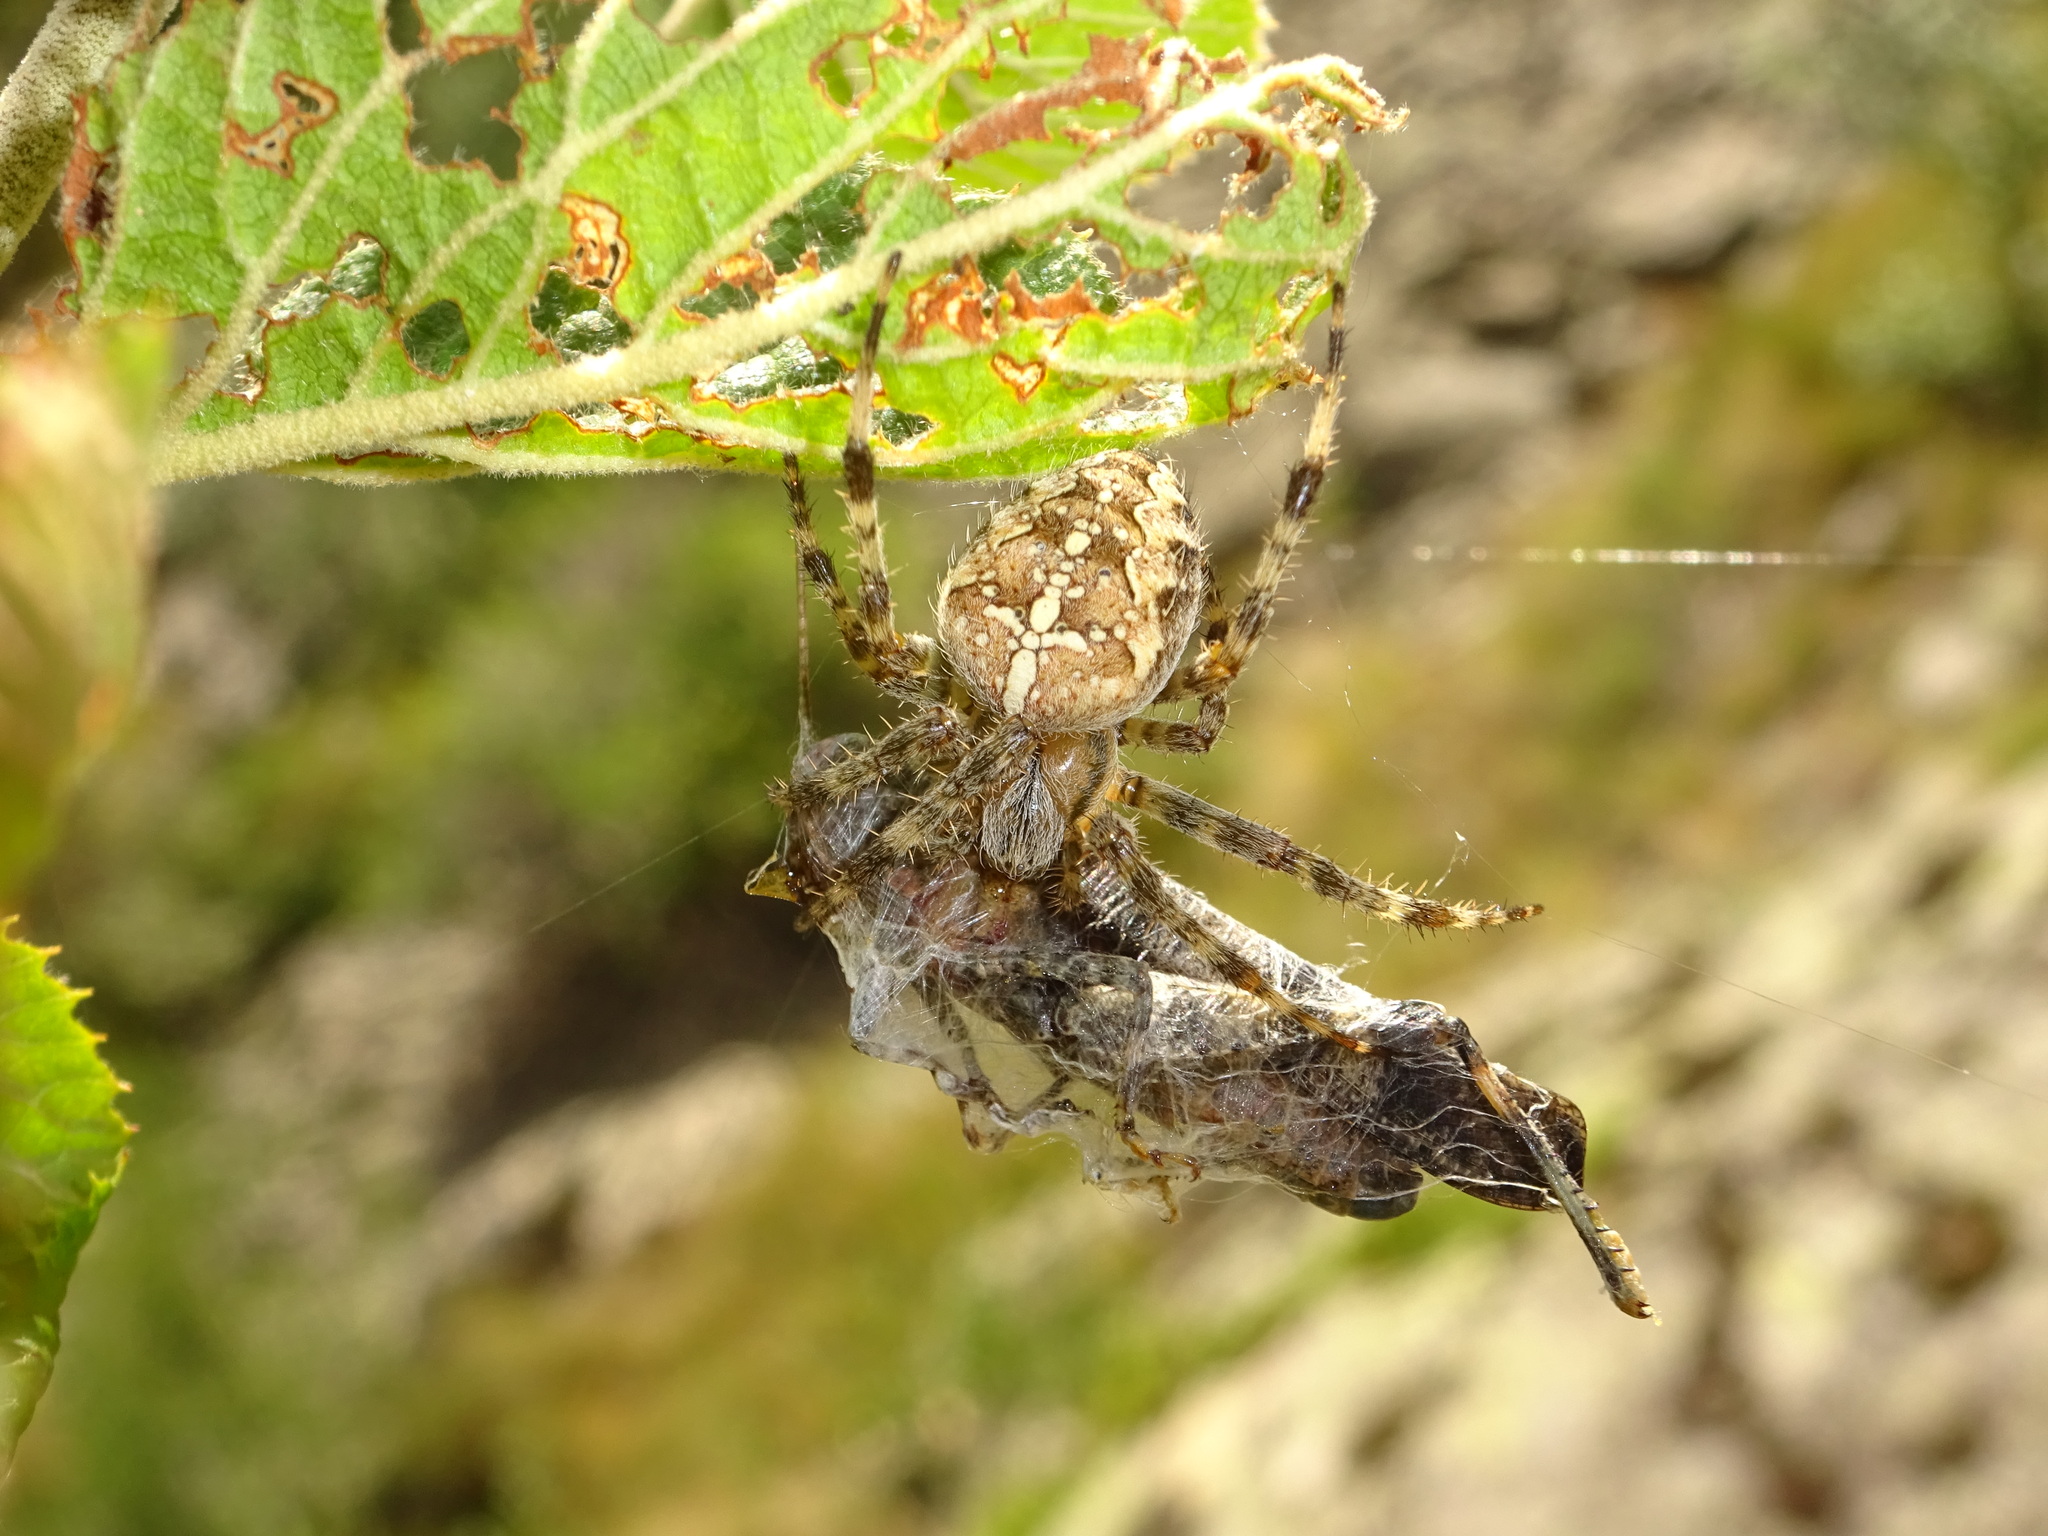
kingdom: Animalia
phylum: Arthropoda
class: Arachnida
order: Araneae
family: Araneidae
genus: Araneus
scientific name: Araneus diadematus
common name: Cross orbweaver
